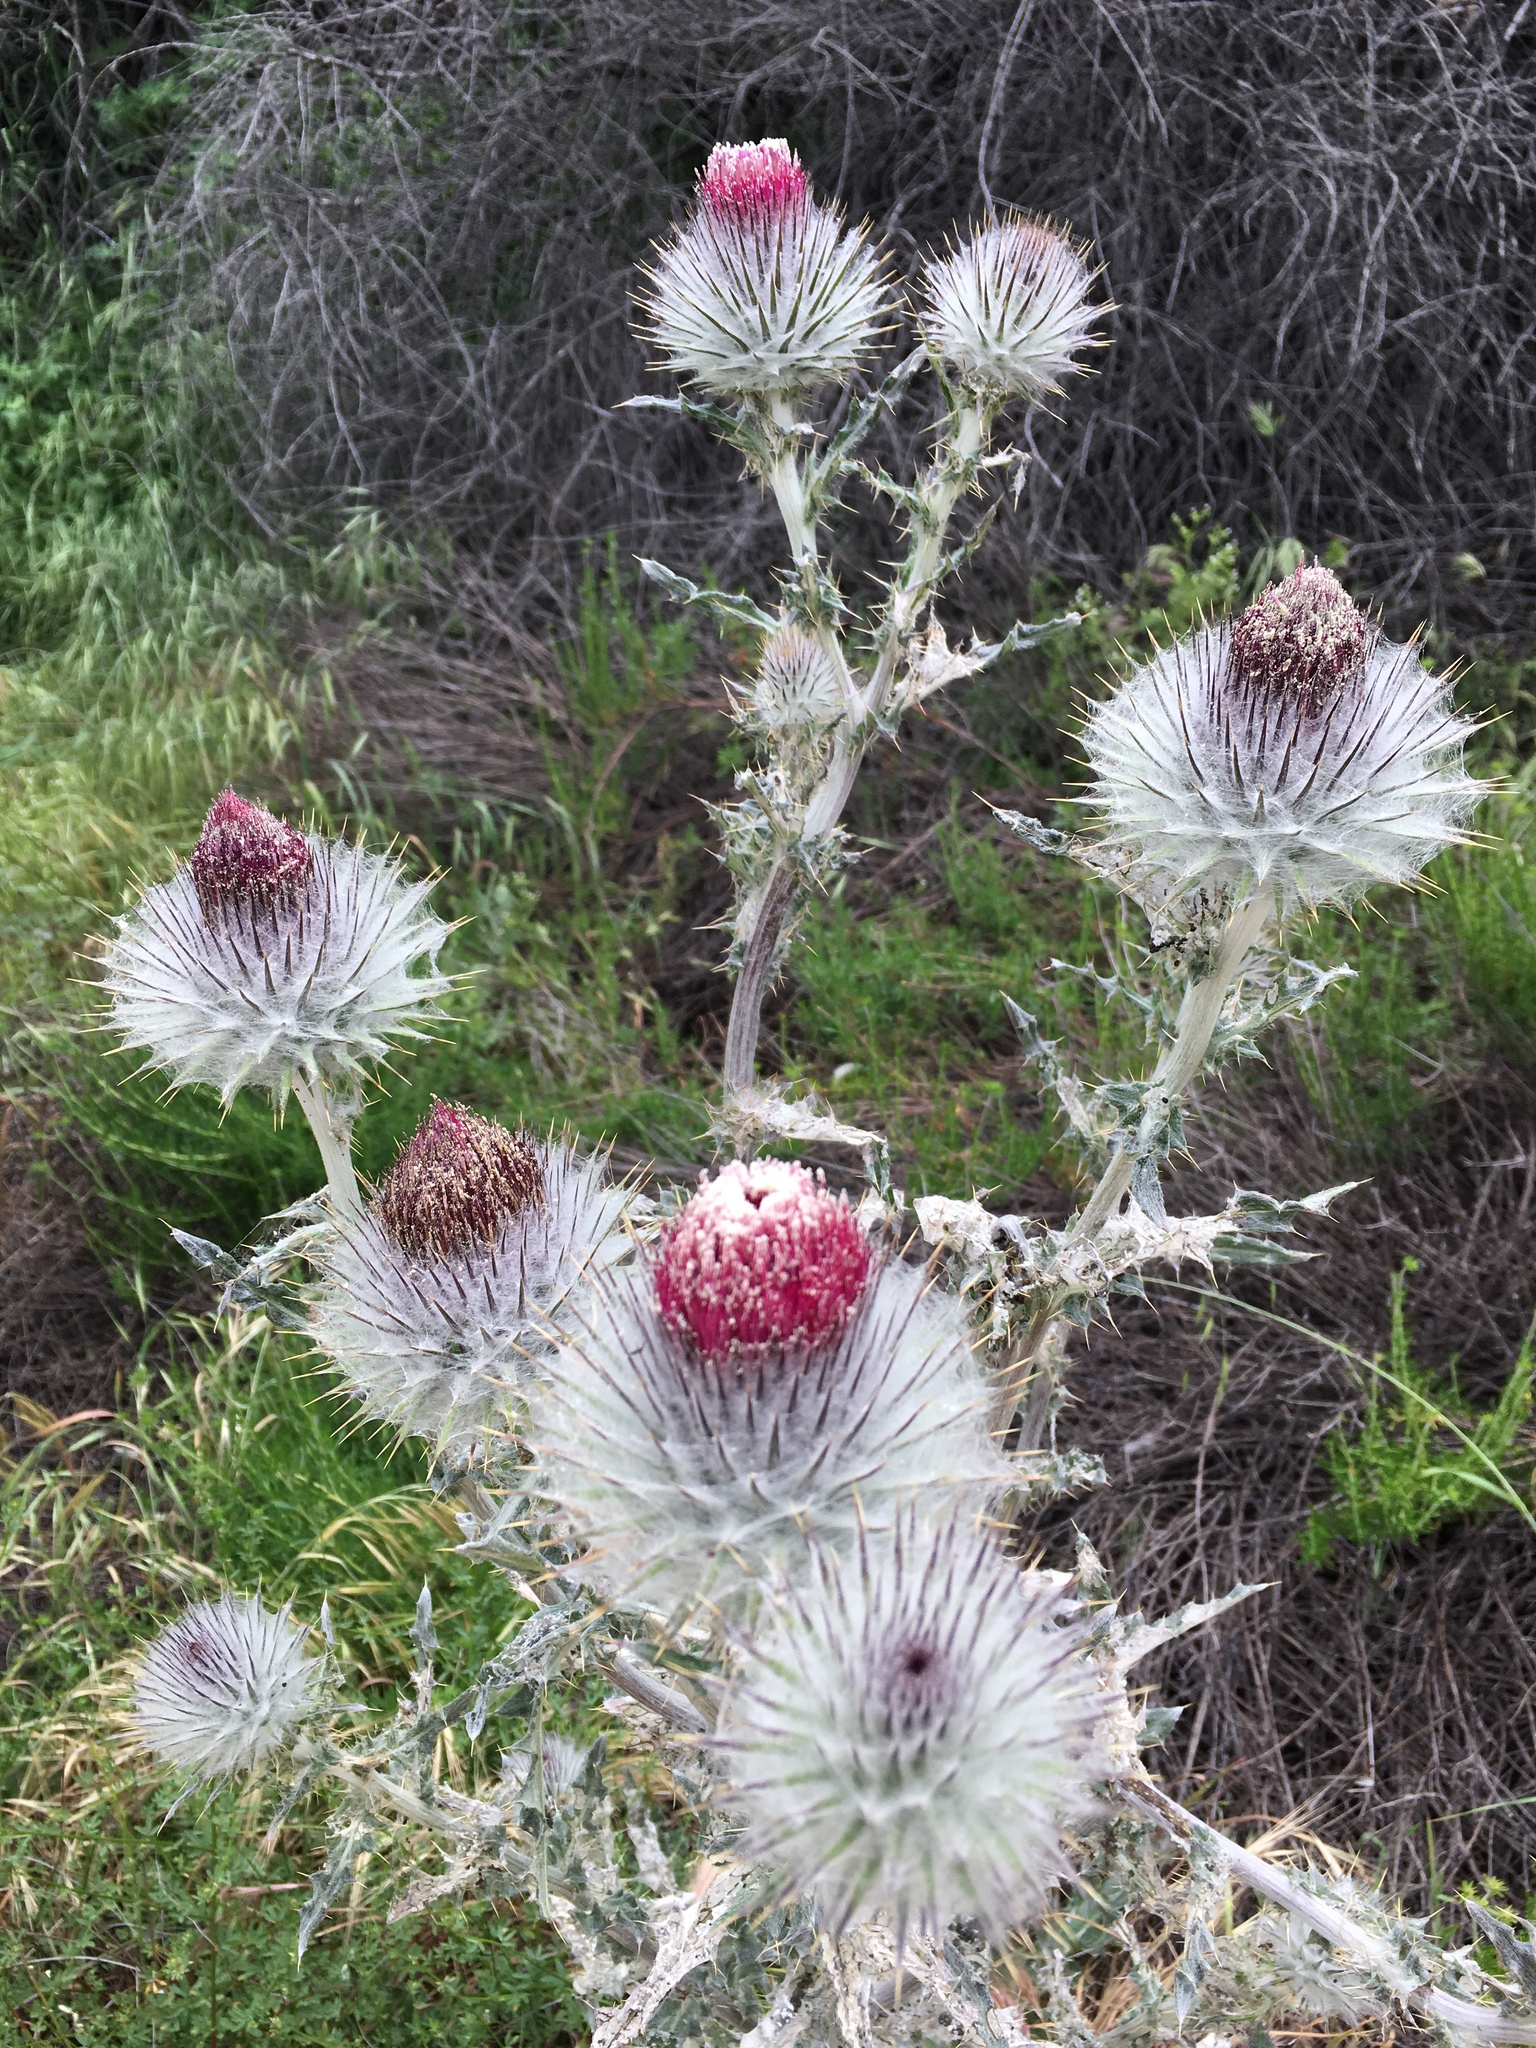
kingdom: Plantae
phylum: Tracheophyta
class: Magnoliopsida
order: Asterales
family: Asteraceae
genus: Cirsium
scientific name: Cirsium occidentale
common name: Western thistle
